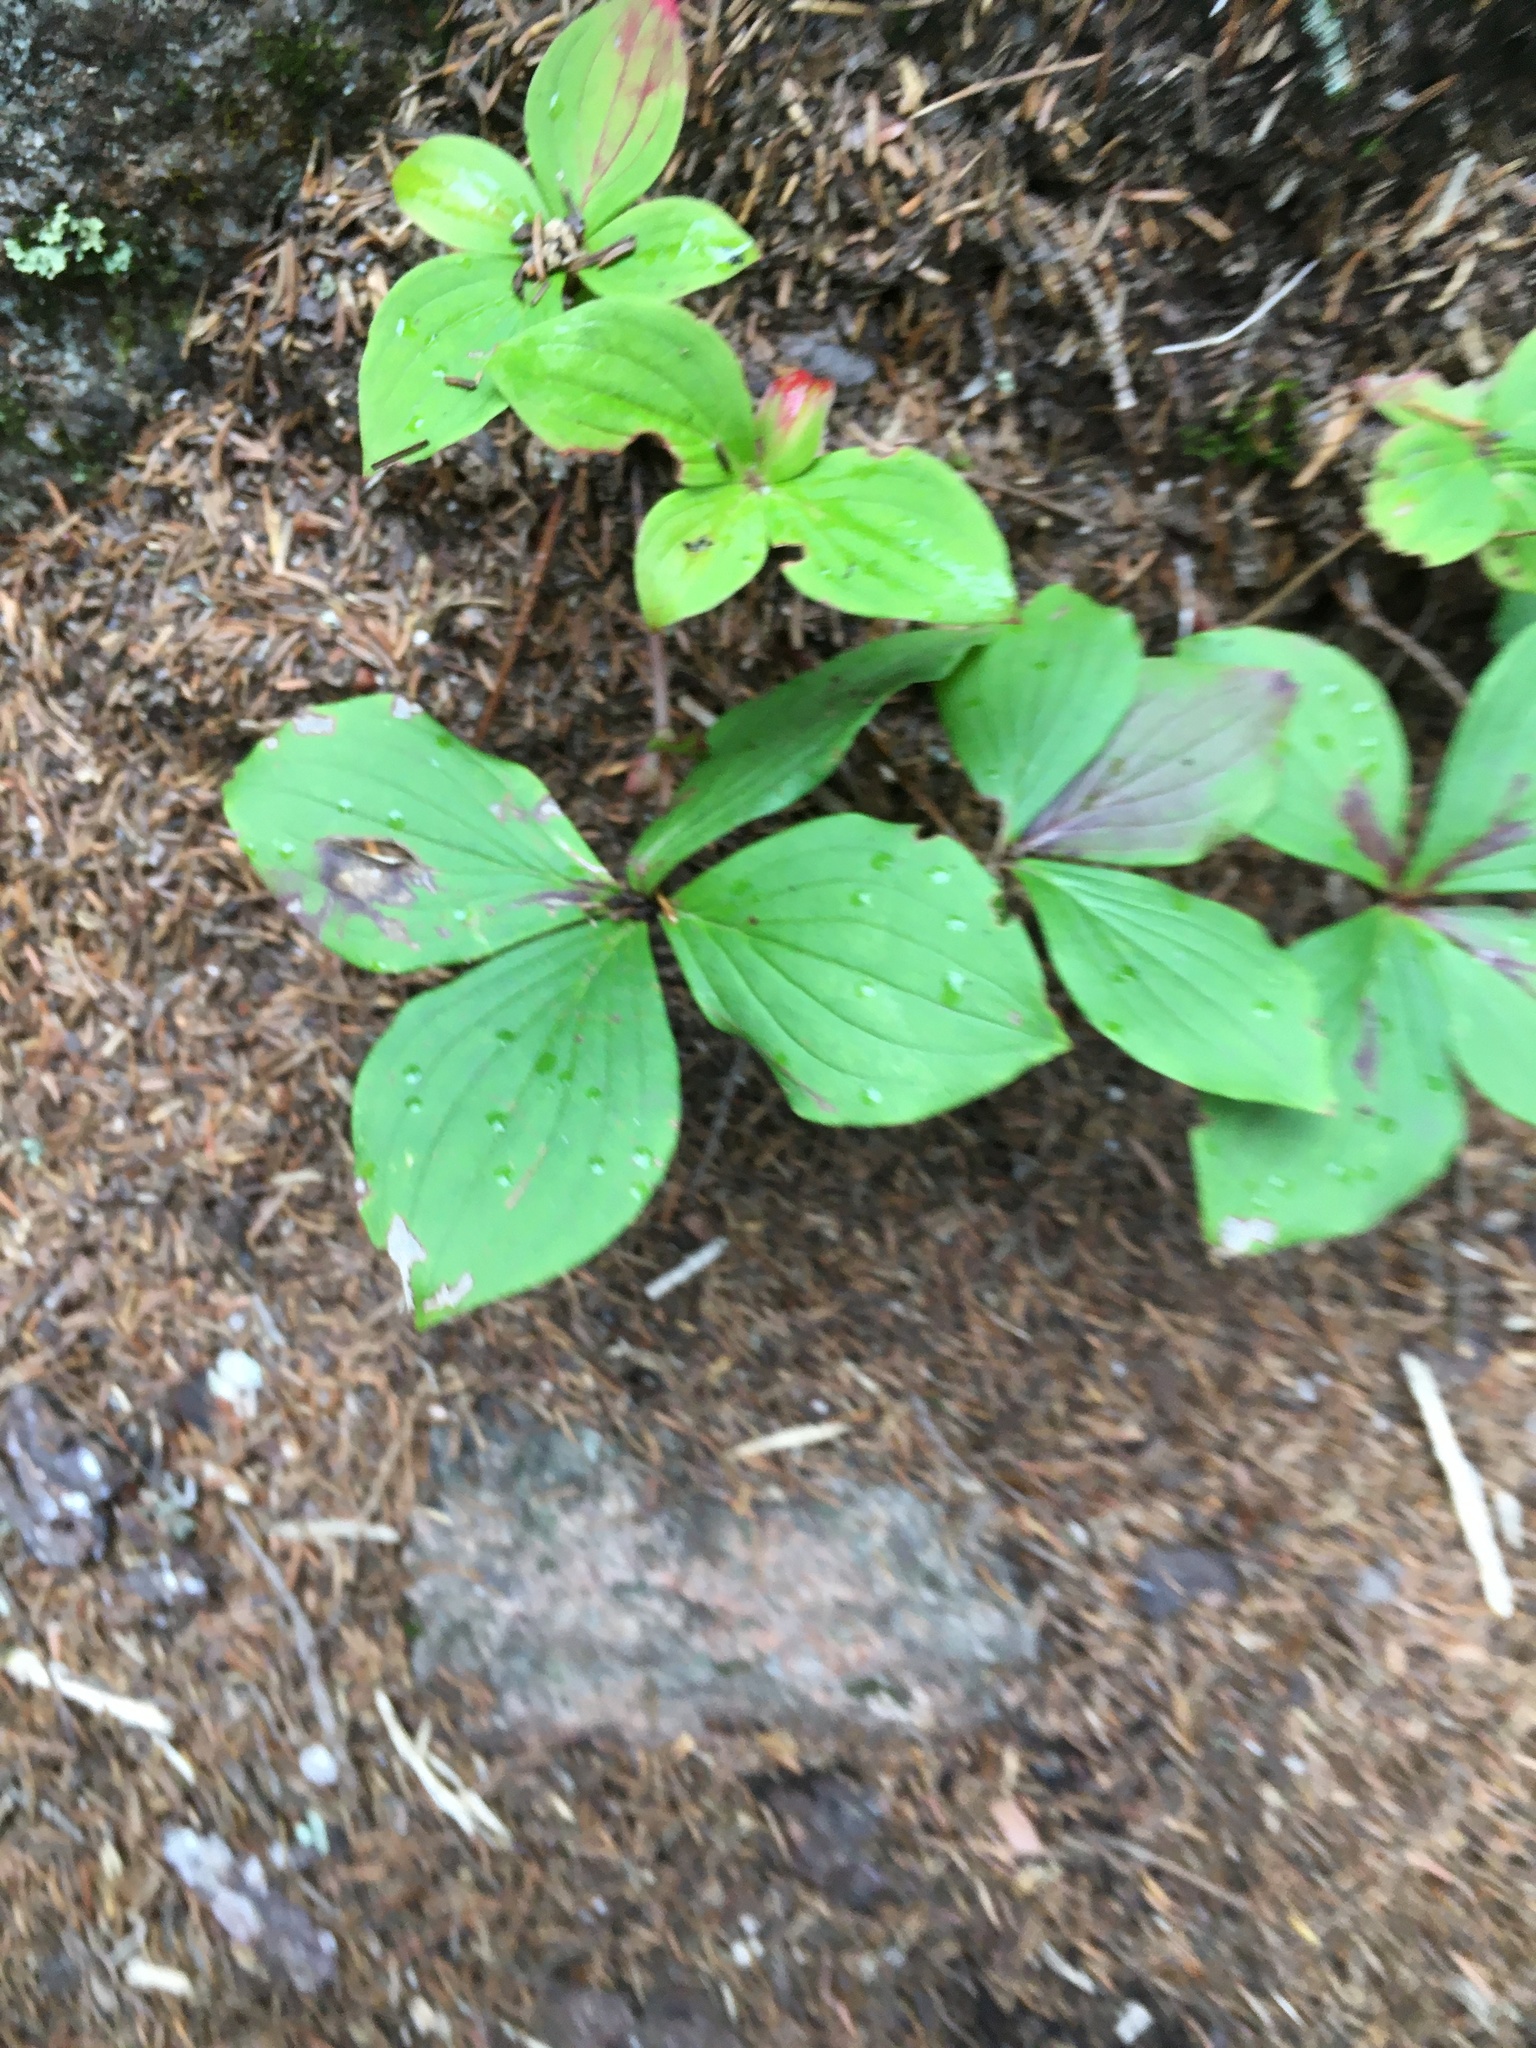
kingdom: Plantae
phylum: Tracheophyta
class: Magnoliopsida
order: Cornales
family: Cornaceae
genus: Cornus
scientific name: Cornus canadensis
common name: Creeping dogwood
